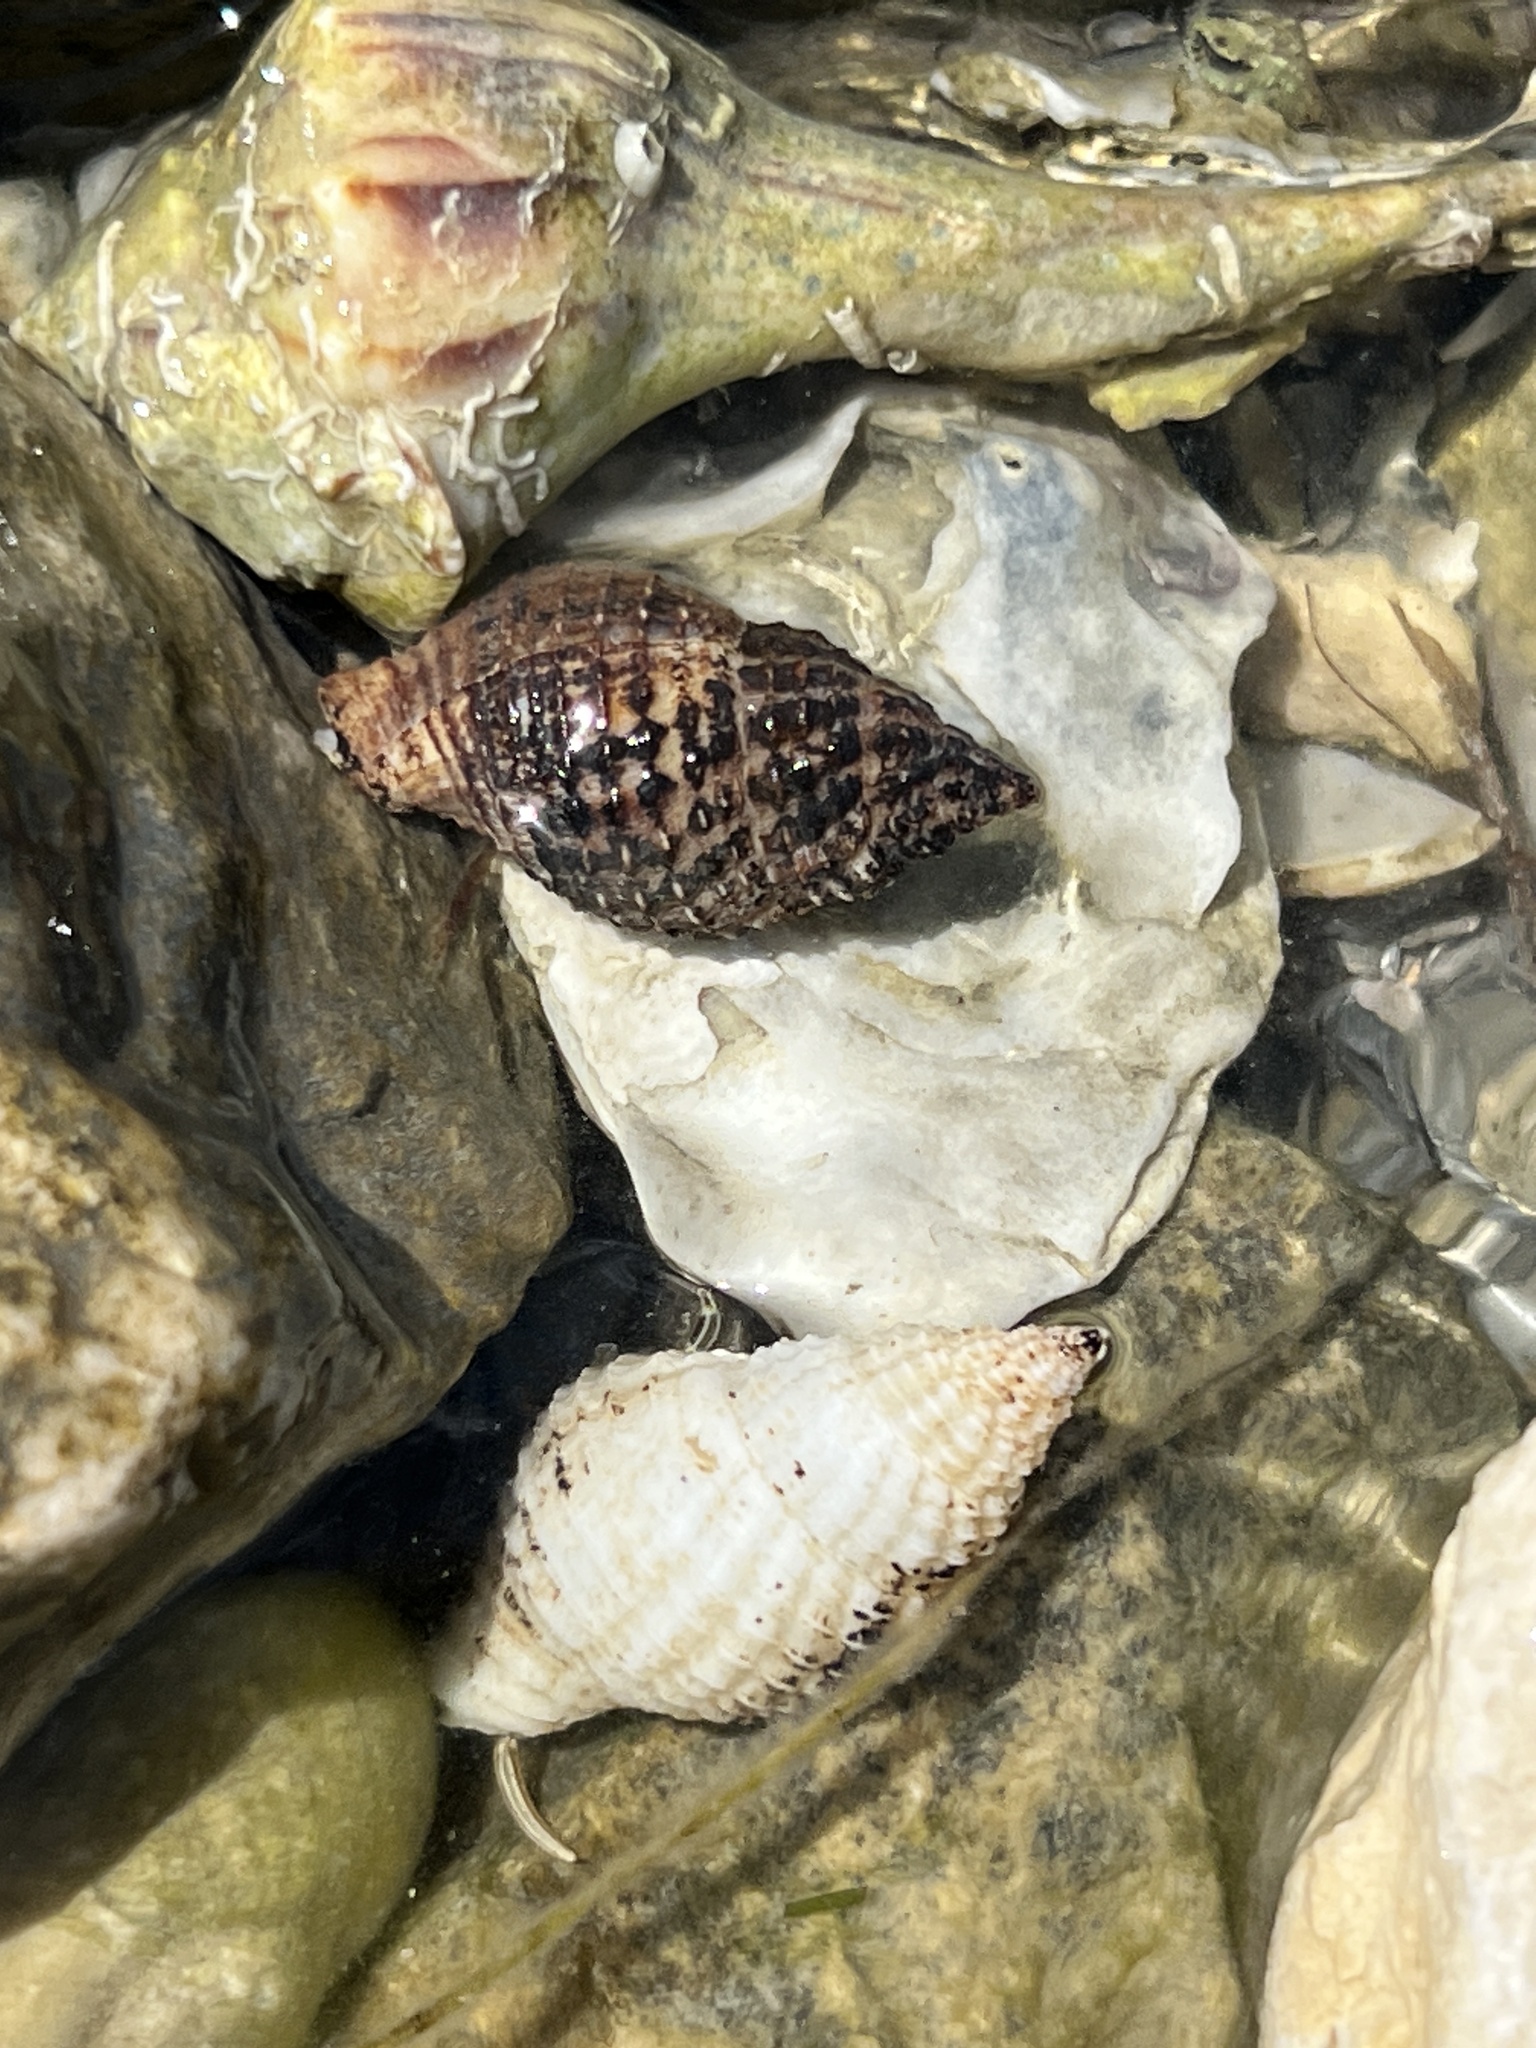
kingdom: Animalia
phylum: Mollusca
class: Gastropoda
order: Neogastropoda
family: Pisaniidae
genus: Solenosteira
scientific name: Solenosteira cancellaria
